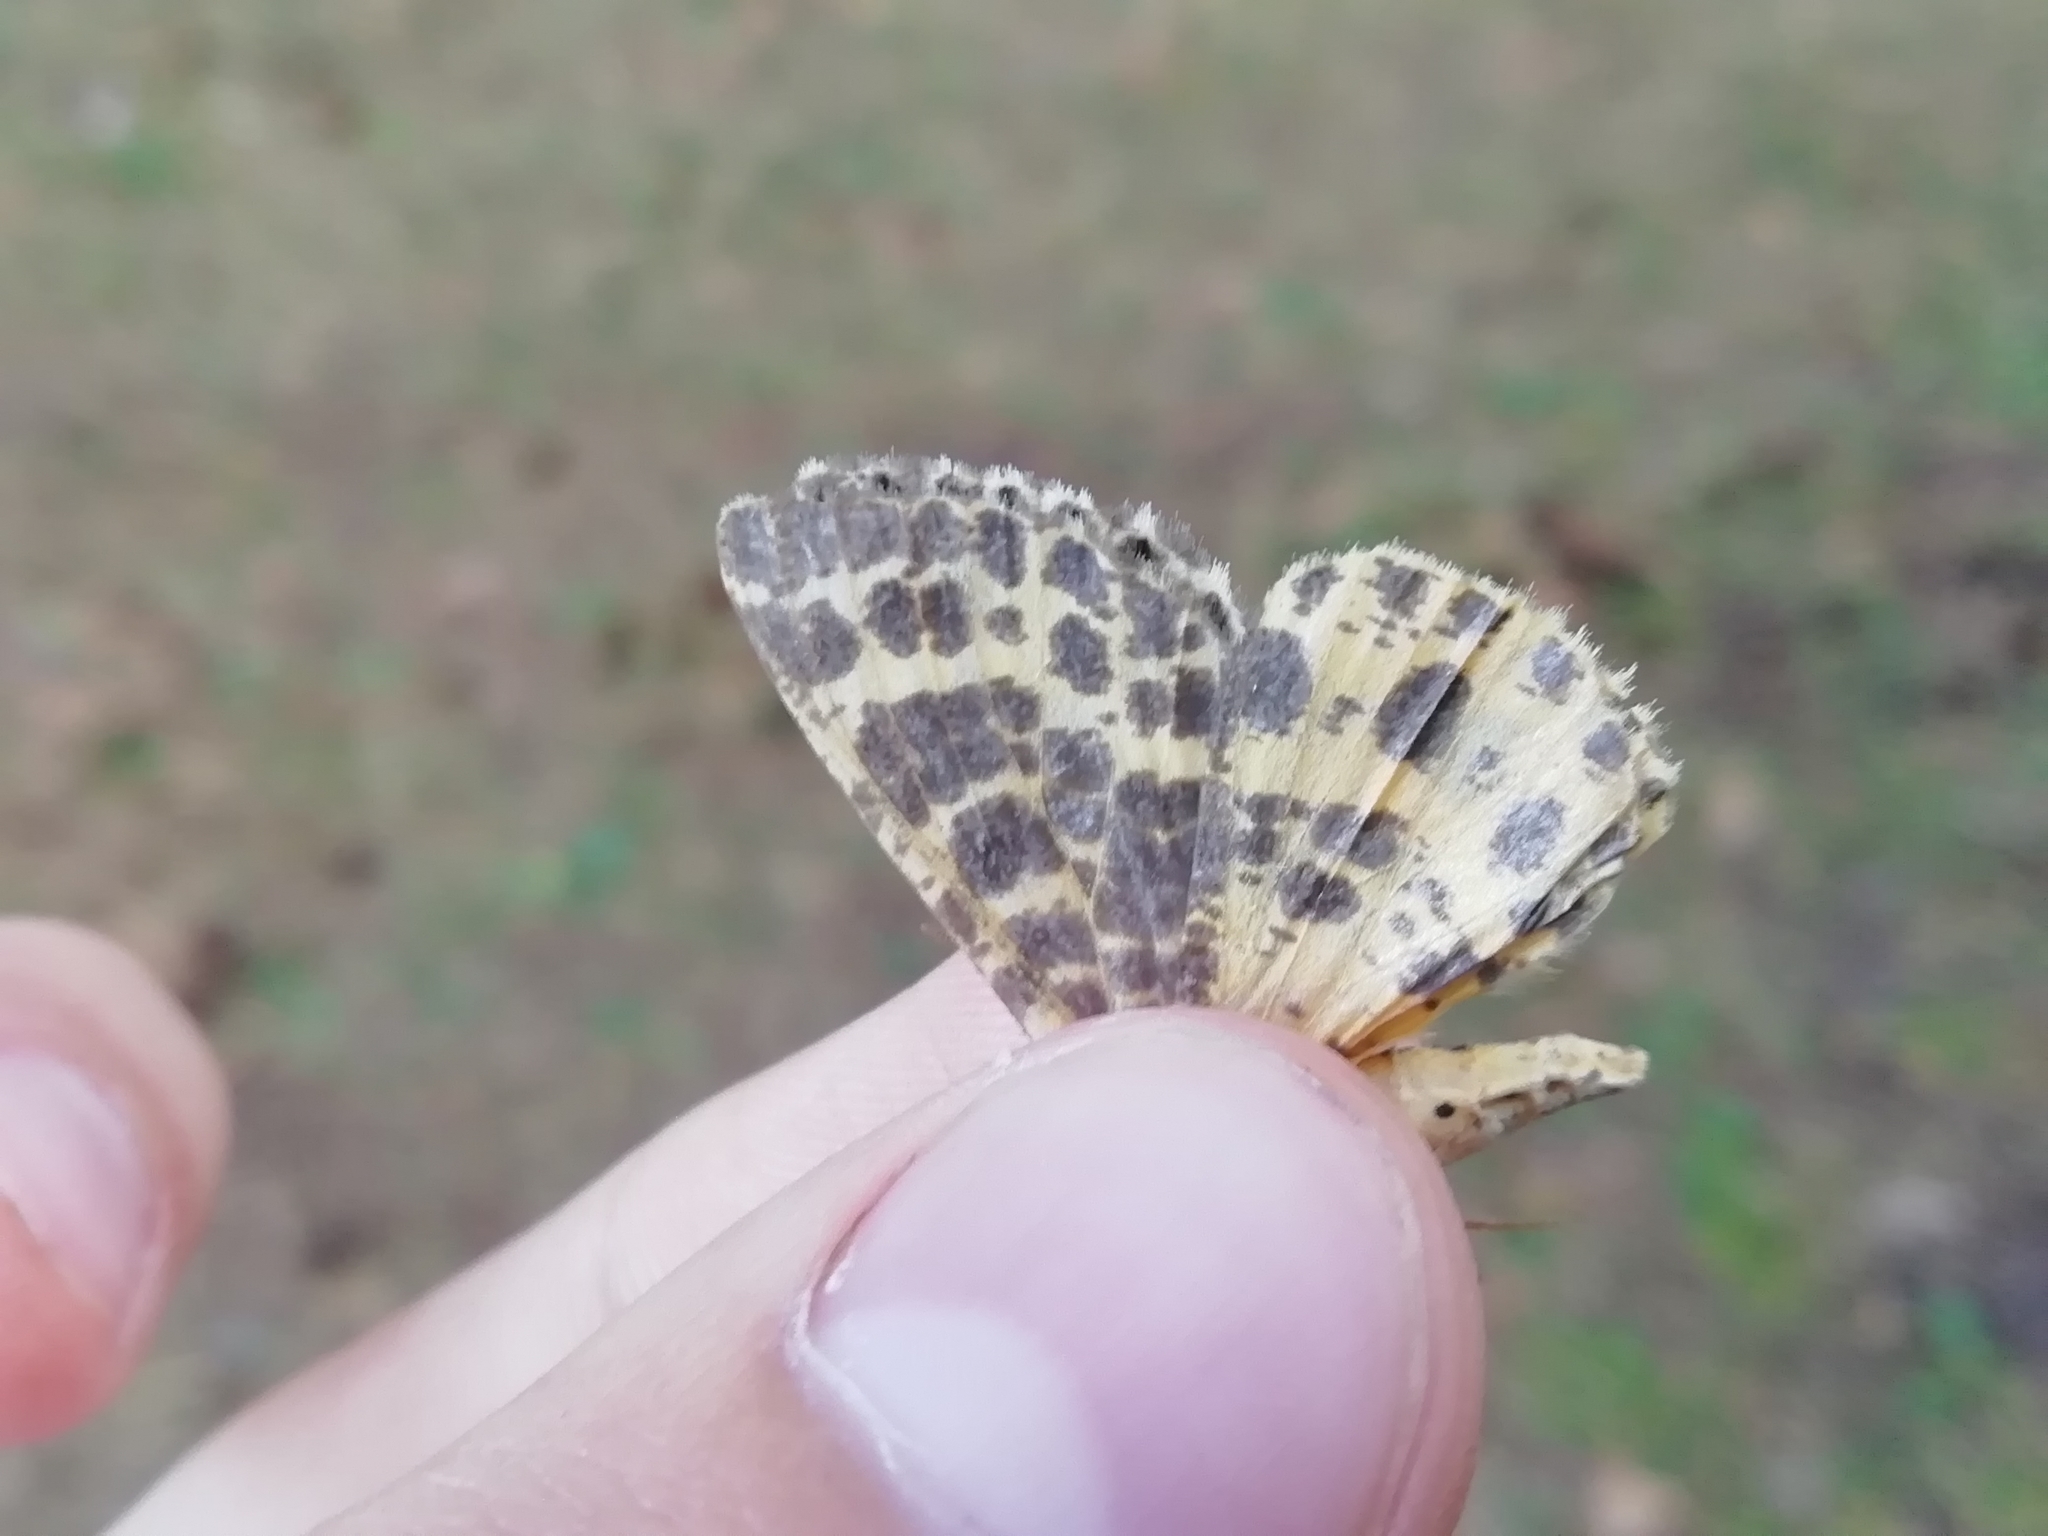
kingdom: Animalia
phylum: Arthropoda
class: Insecta
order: Lepidoptera
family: Geometridae
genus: Arichanna
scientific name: Arichanna melanaria
